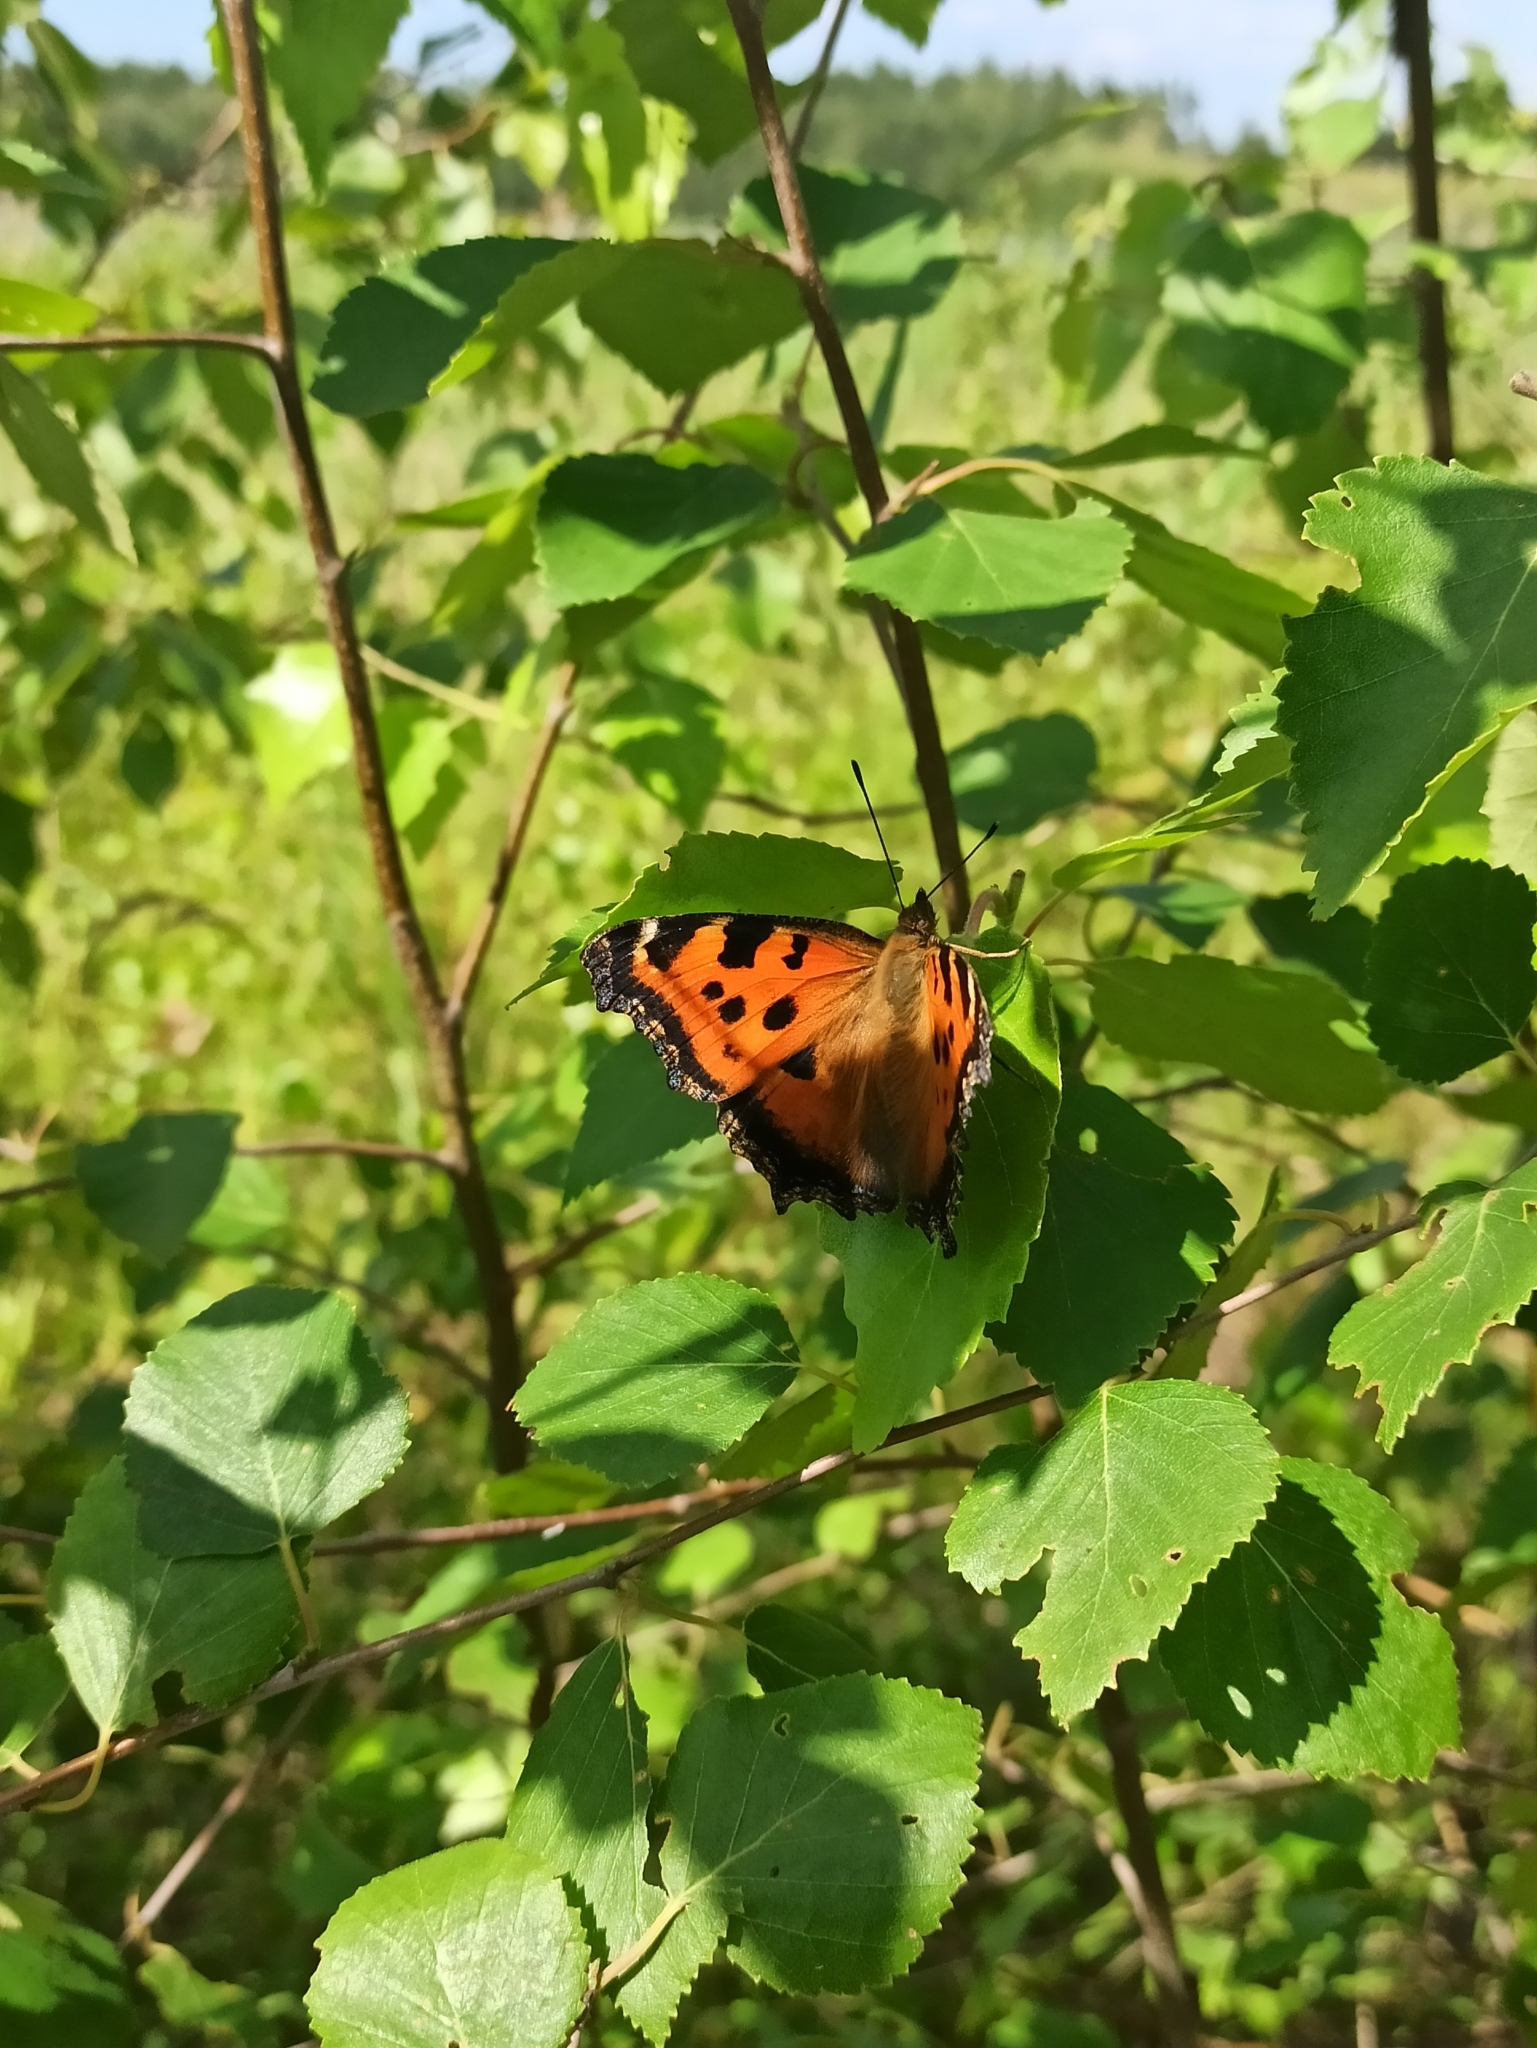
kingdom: Animalia
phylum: Arthropoda
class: Insecta
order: Lepidoptera
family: Nymphalidae
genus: Nymphalis
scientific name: Nymphalis xanthomelas
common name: Scarce tortoiseshell
